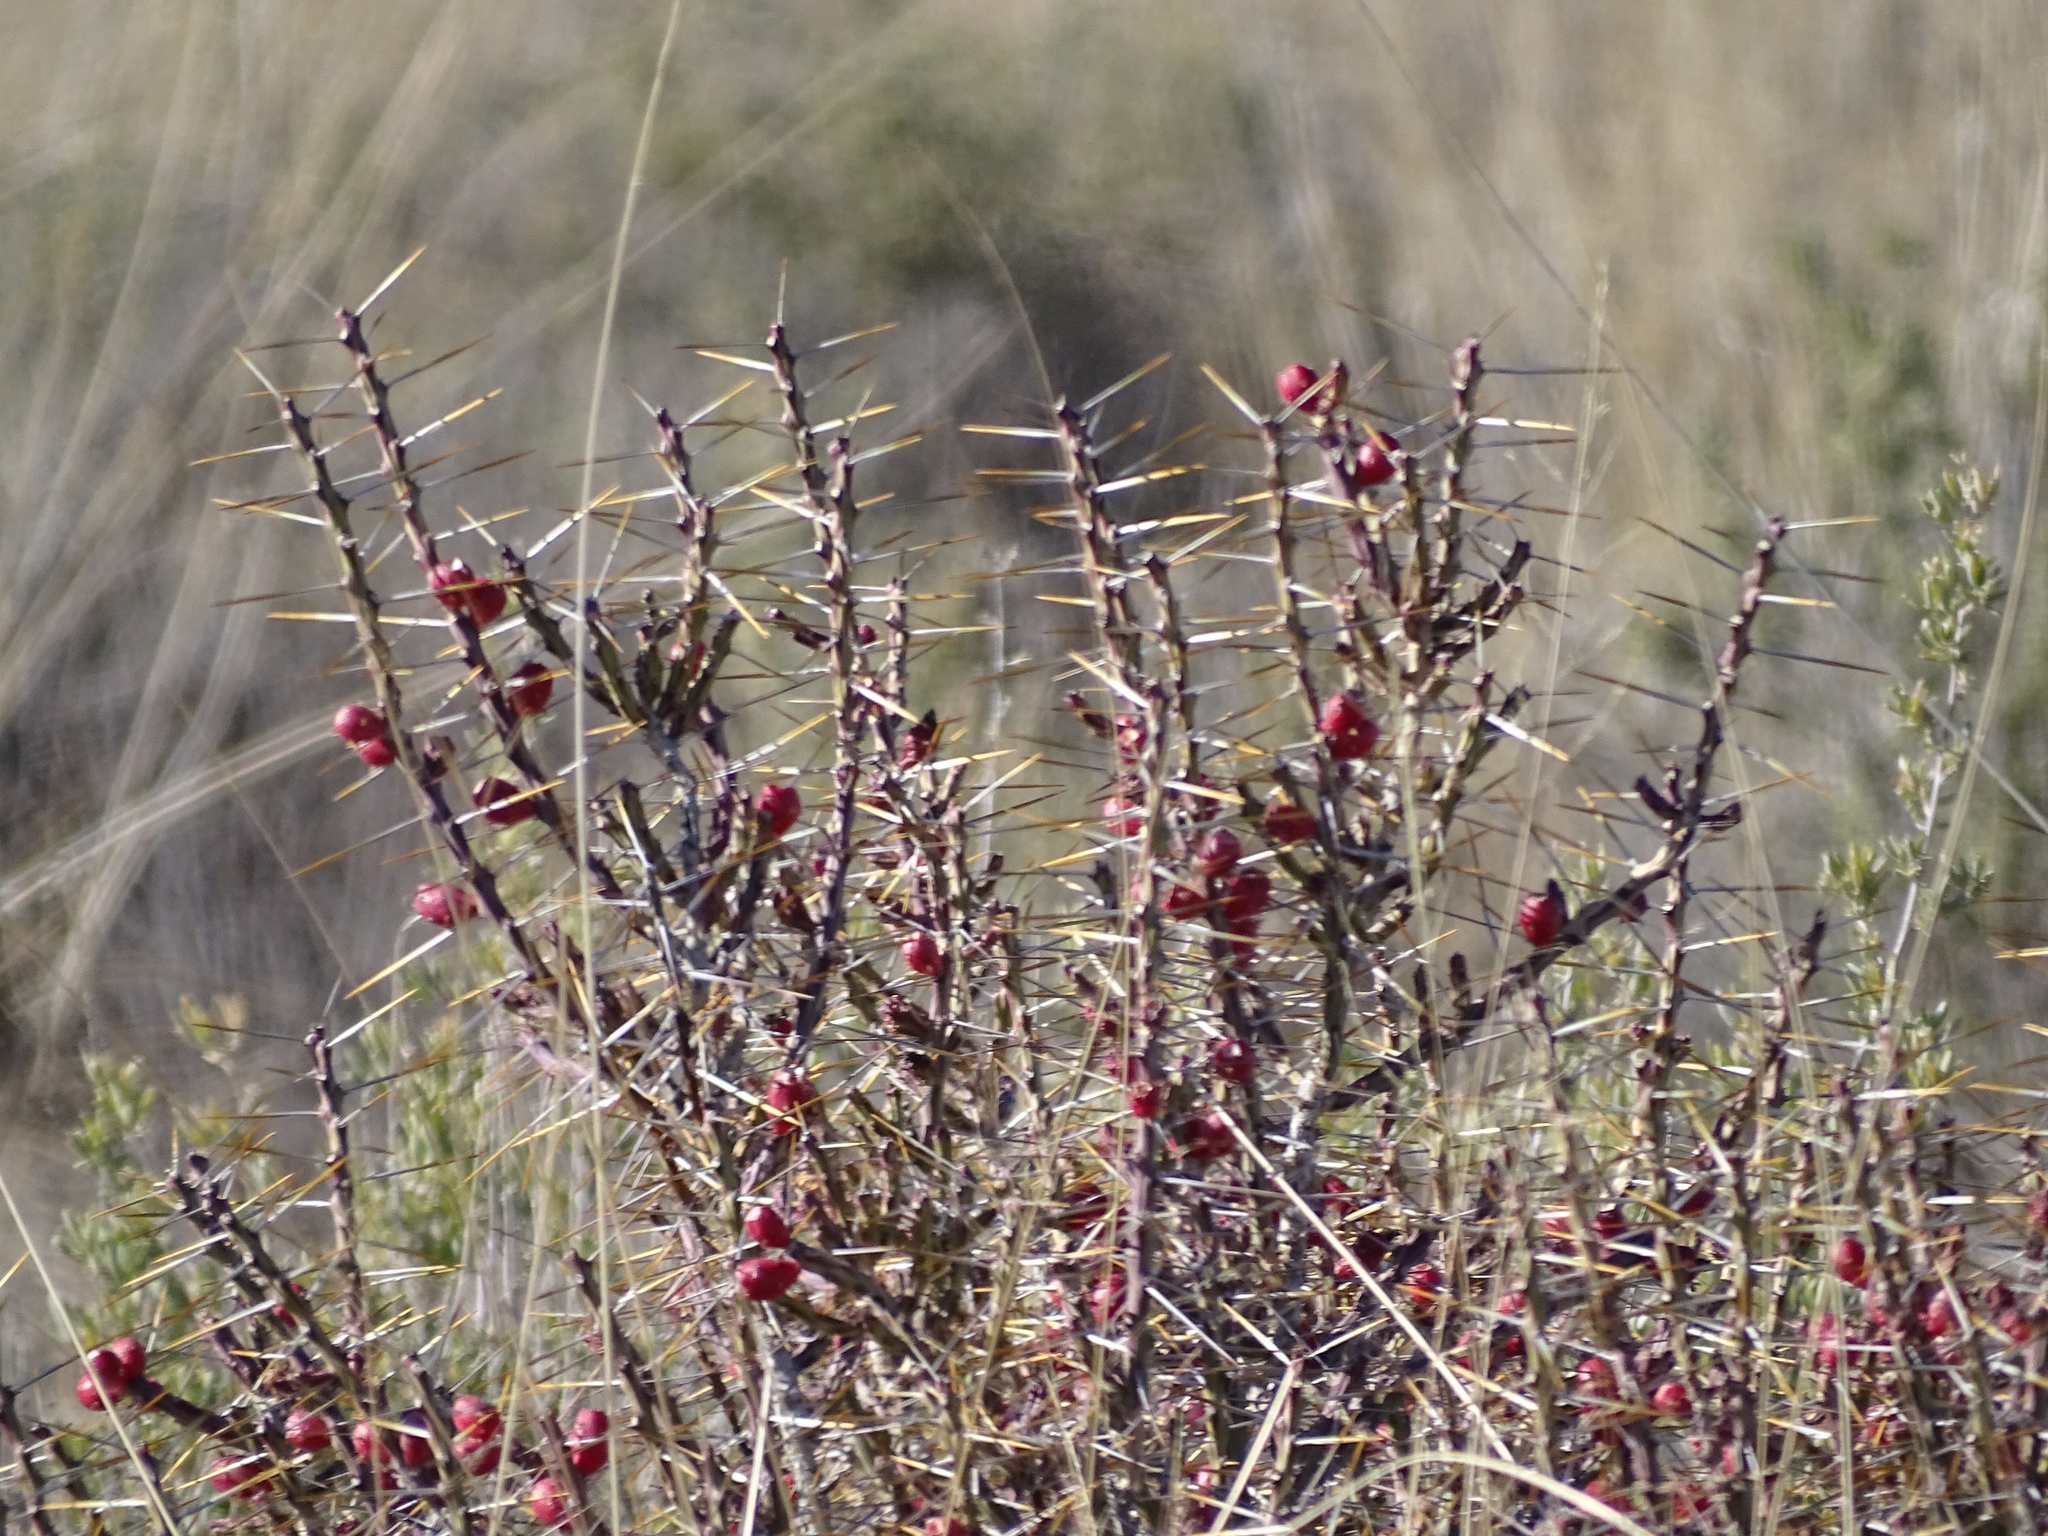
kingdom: Plantae
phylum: Tracheophyta
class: Magnoliopsida
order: Caryophyllales
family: Cactaceae
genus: Cylindropuntia
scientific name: Cylindropuntia leptocaulis
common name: Christmas cactus
